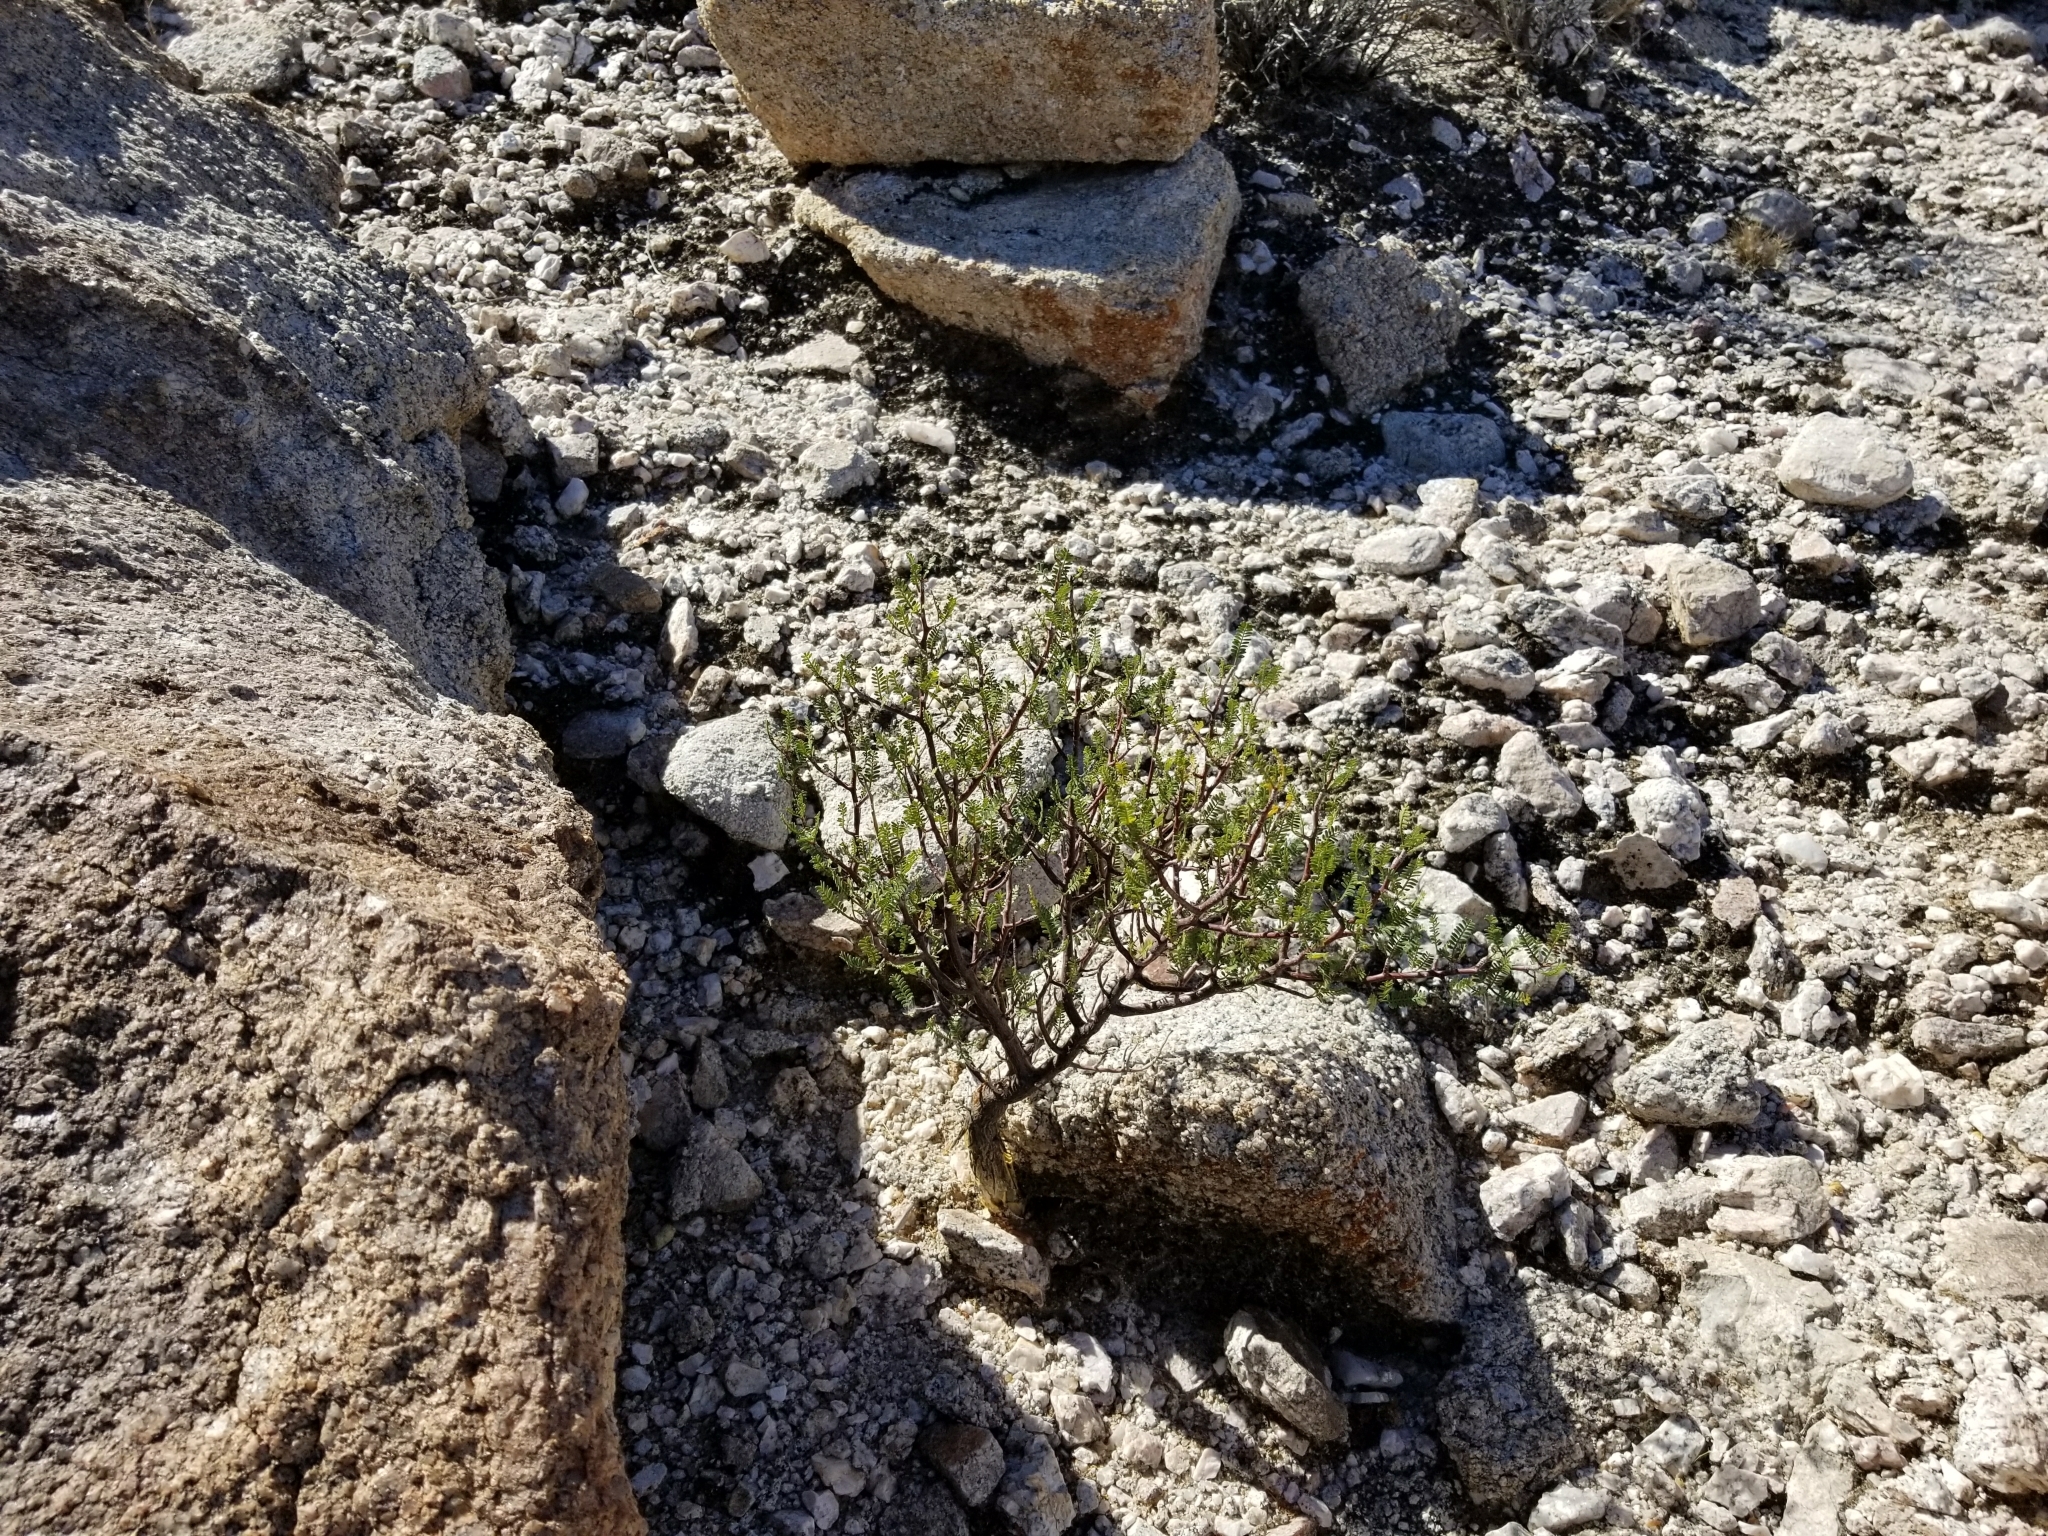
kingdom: Plantae
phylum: Tracheophyta
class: Magnoliopsida
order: Sapindales
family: Burseraceae
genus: Bursera
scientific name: Bursera microphylla
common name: Elephant tree
